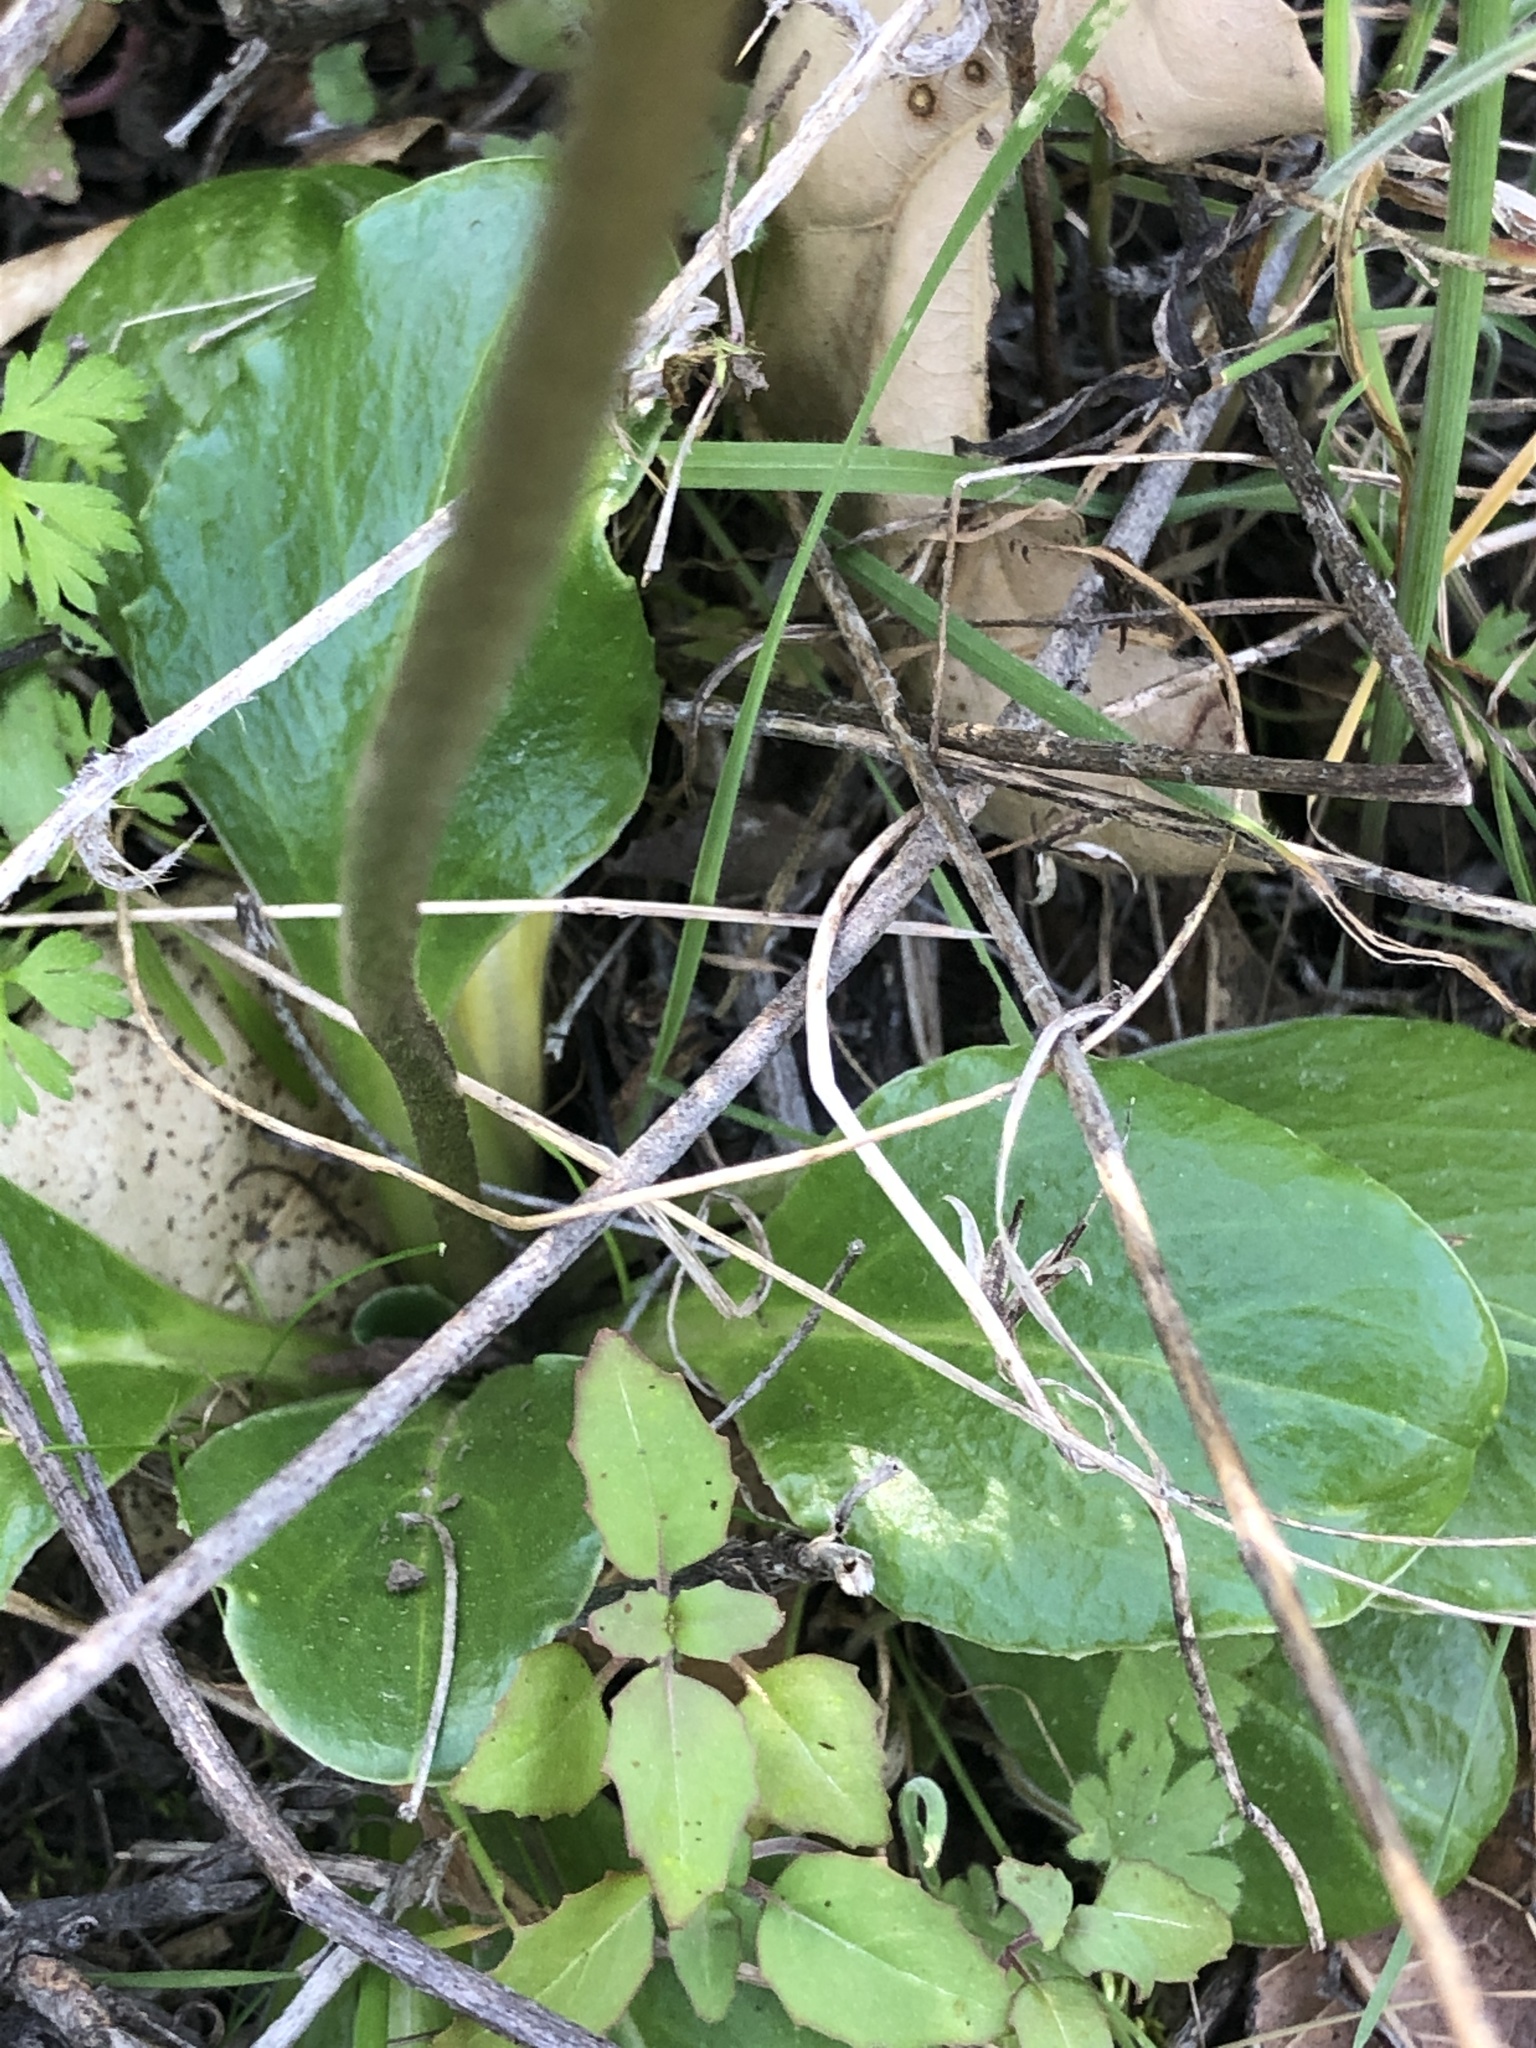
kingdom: Plantae
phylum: Tracheophyta
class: Magnoliopsida
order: Ericales
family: Primulaceae
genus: Dodecatheon
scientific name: Dodecatheon hendersonii
